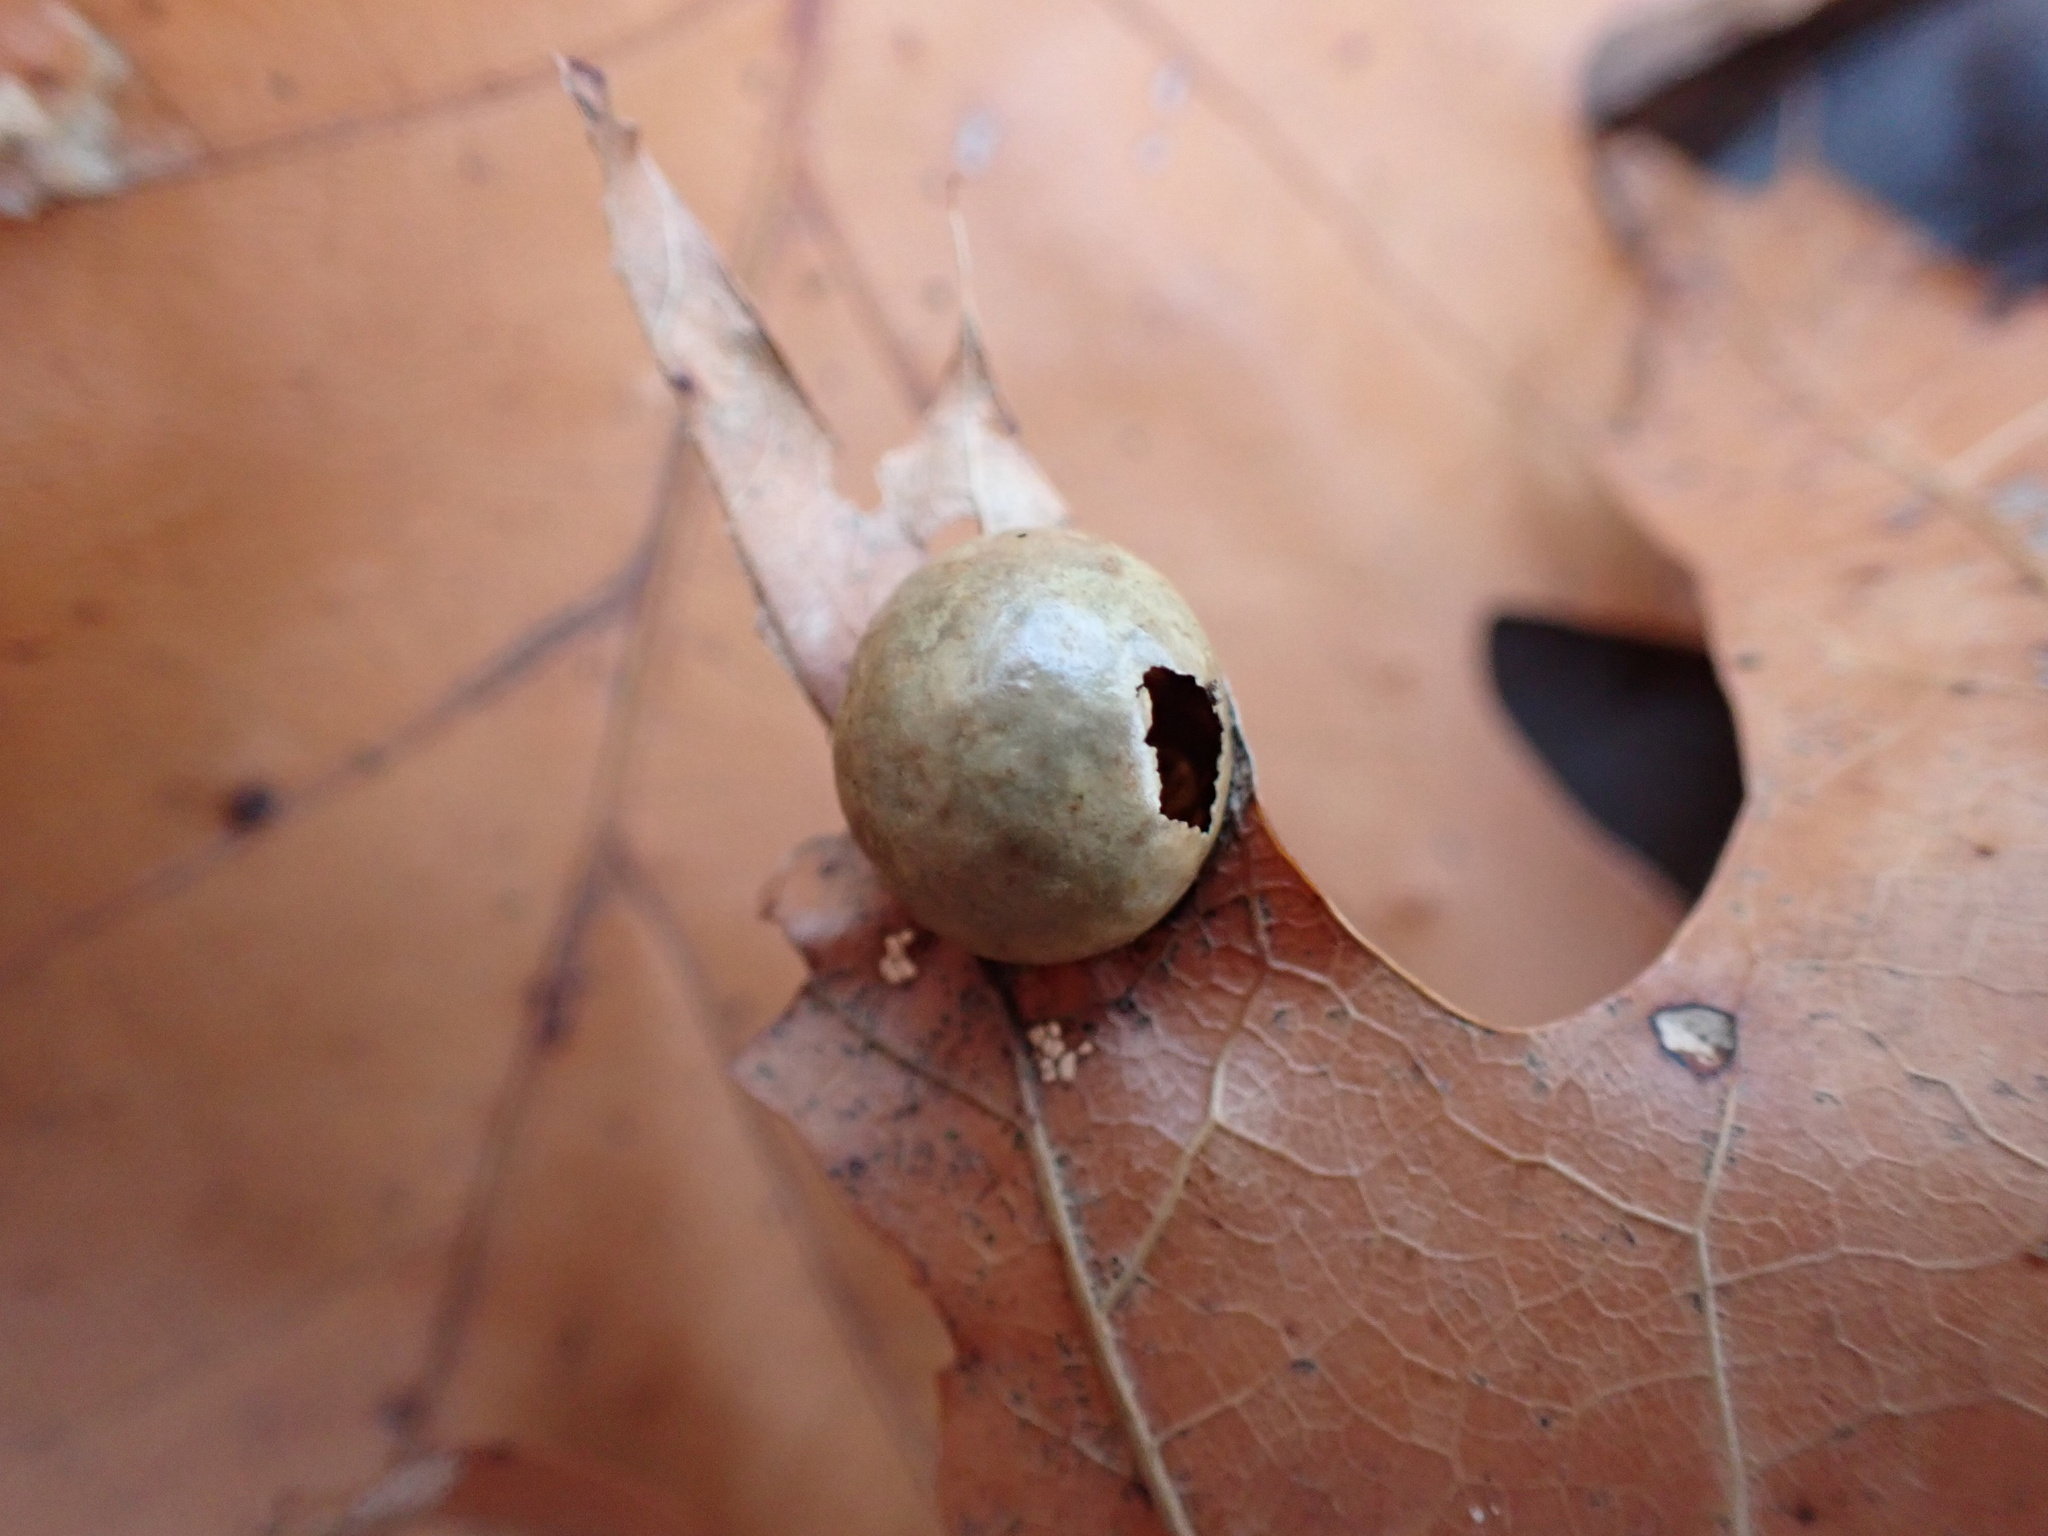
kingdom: Animalia
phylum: Arthropoda
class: Insecta
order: Hymenoptera
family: Cynipidae
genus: Amphibolips
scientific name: Amphibolips
